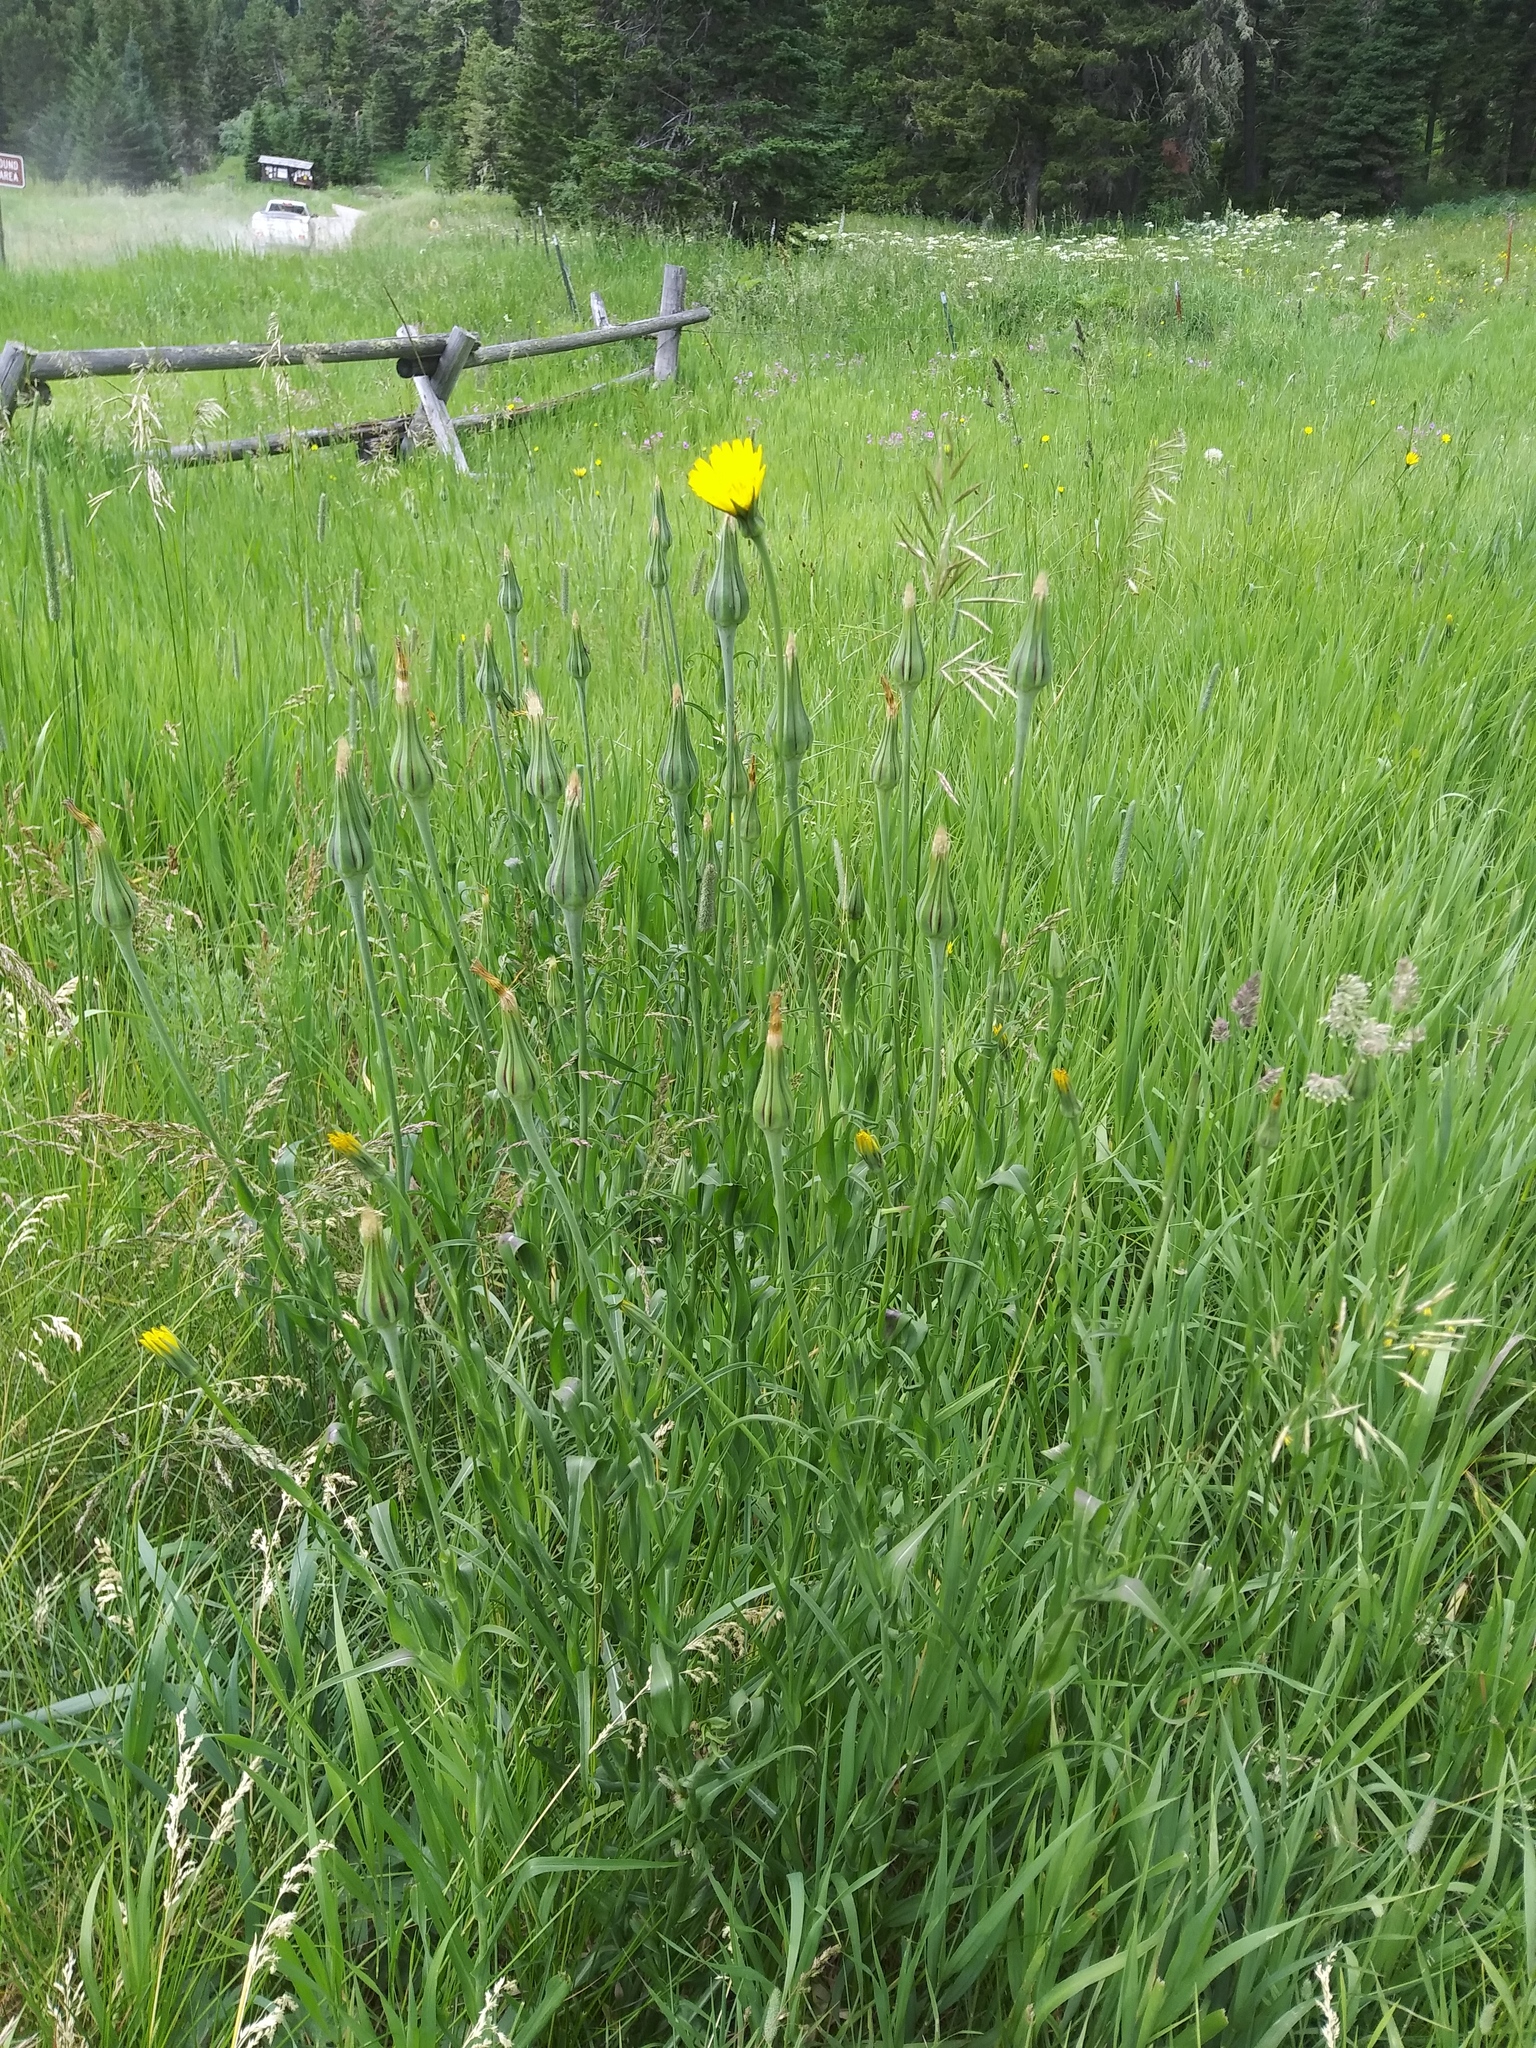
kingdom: Plantae
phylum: Tracheophyta
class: Magnoliopsida
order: Asterales
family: Asteraceae
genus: Tragopogon
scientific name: Tragopogon pratensis
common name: Goat's-beard
